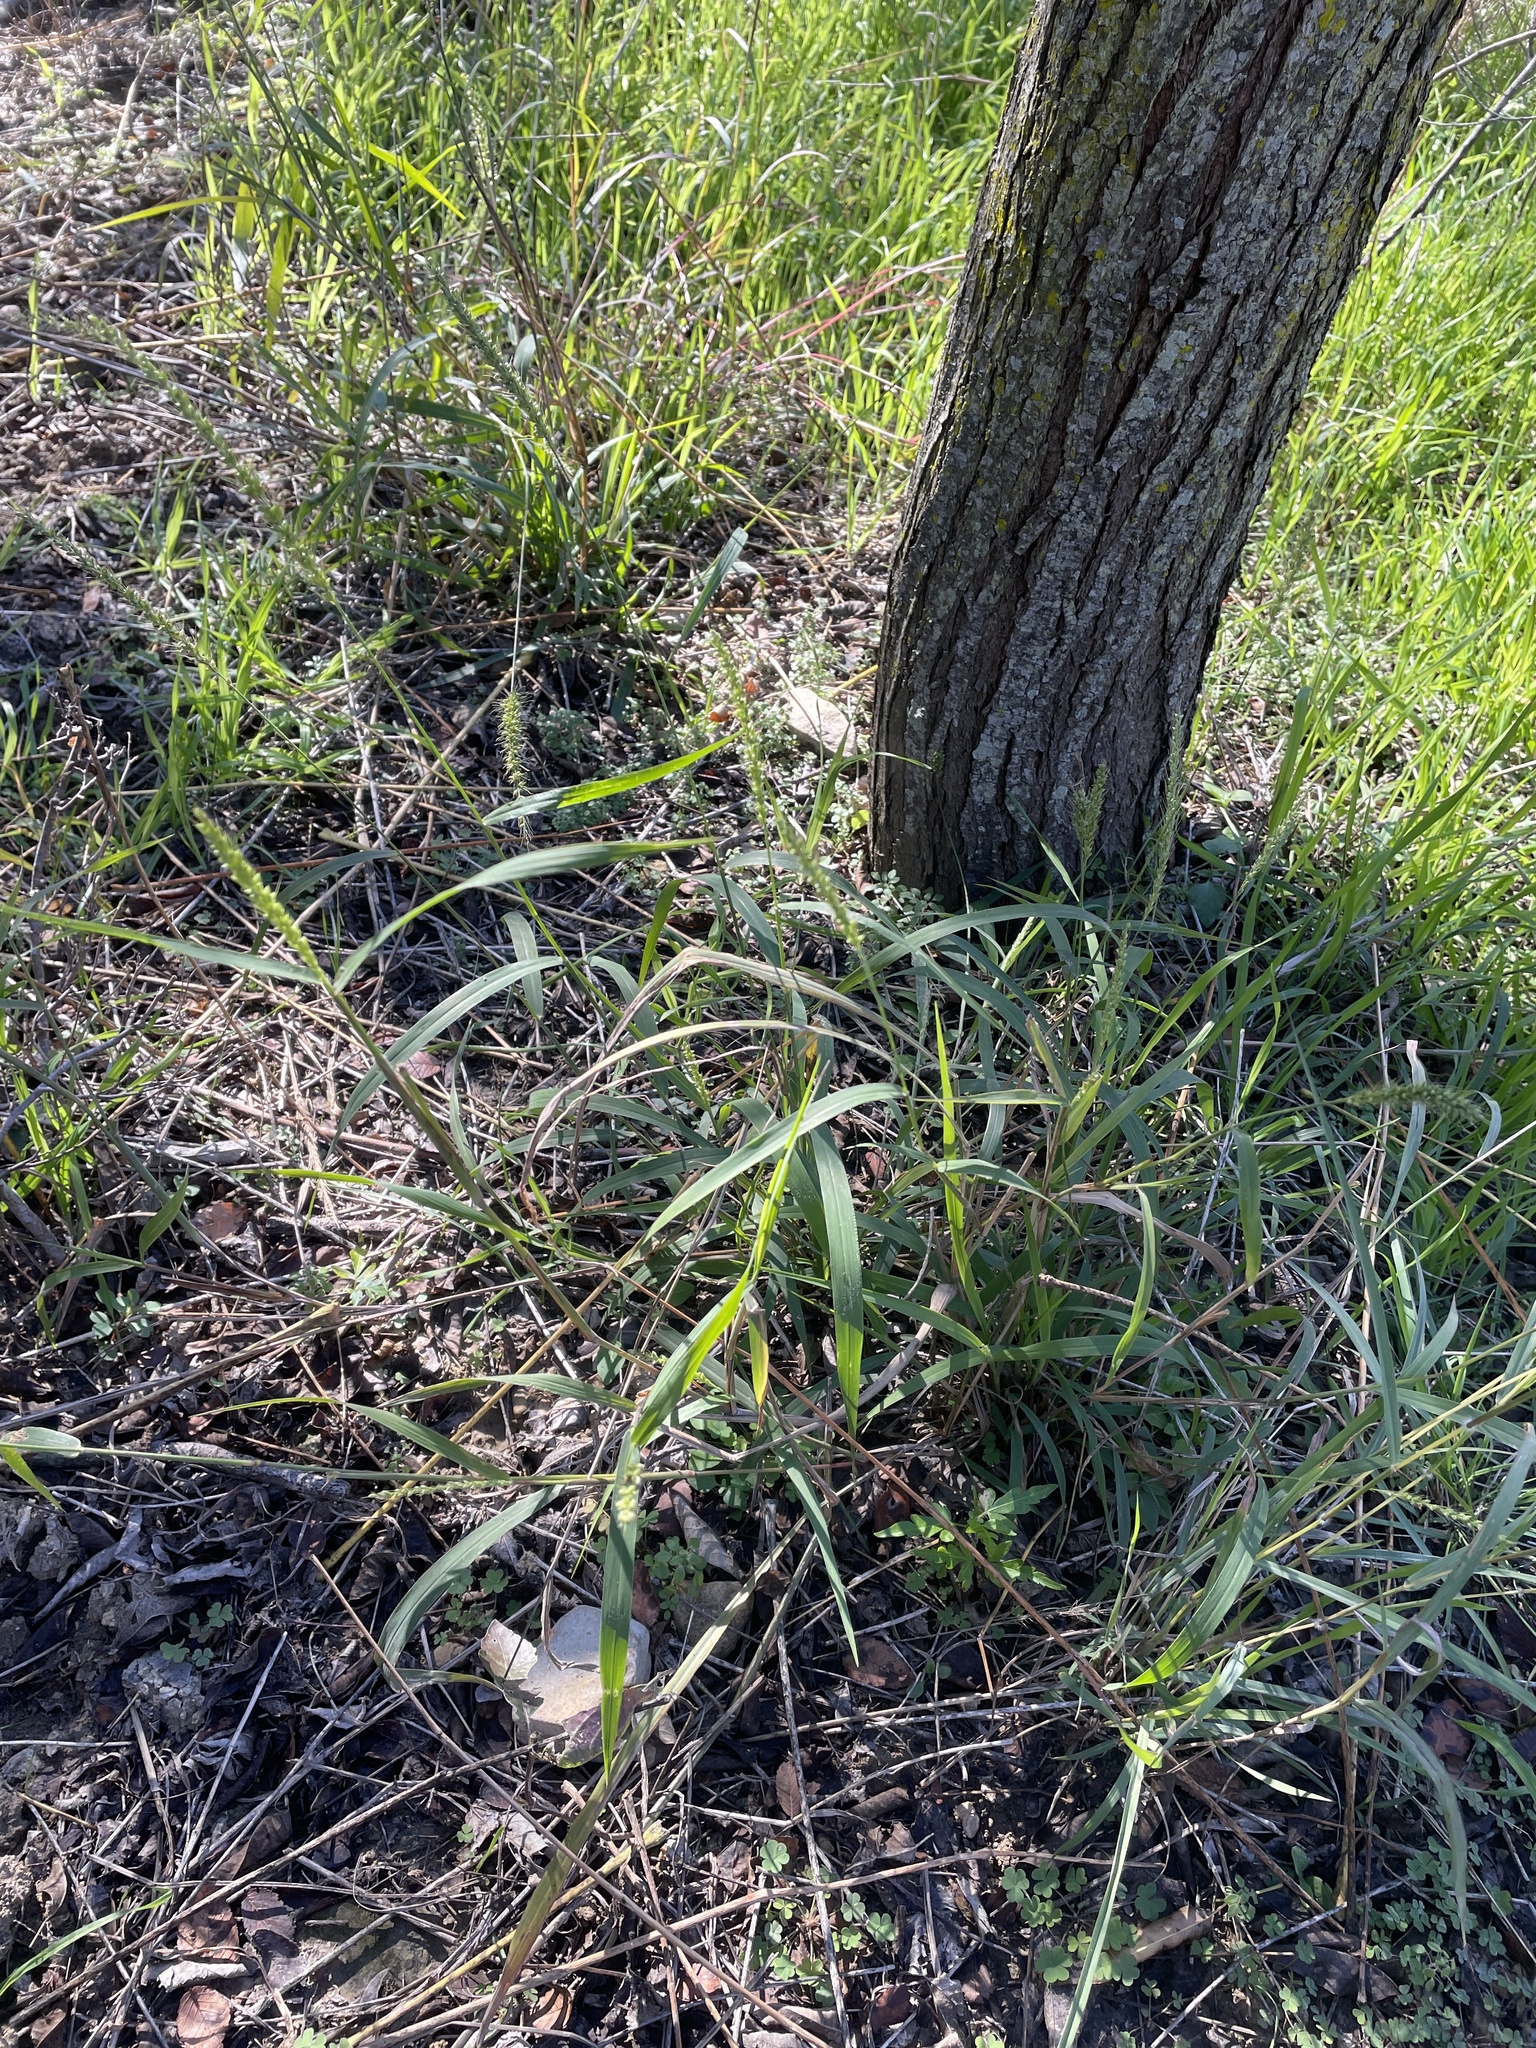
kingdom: Plantae
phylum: Tracheophyta
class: Liliopsida
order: Poales
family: Poaceae
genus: Setaria
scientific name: Setaria leucopila
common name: Plains bristle grass
